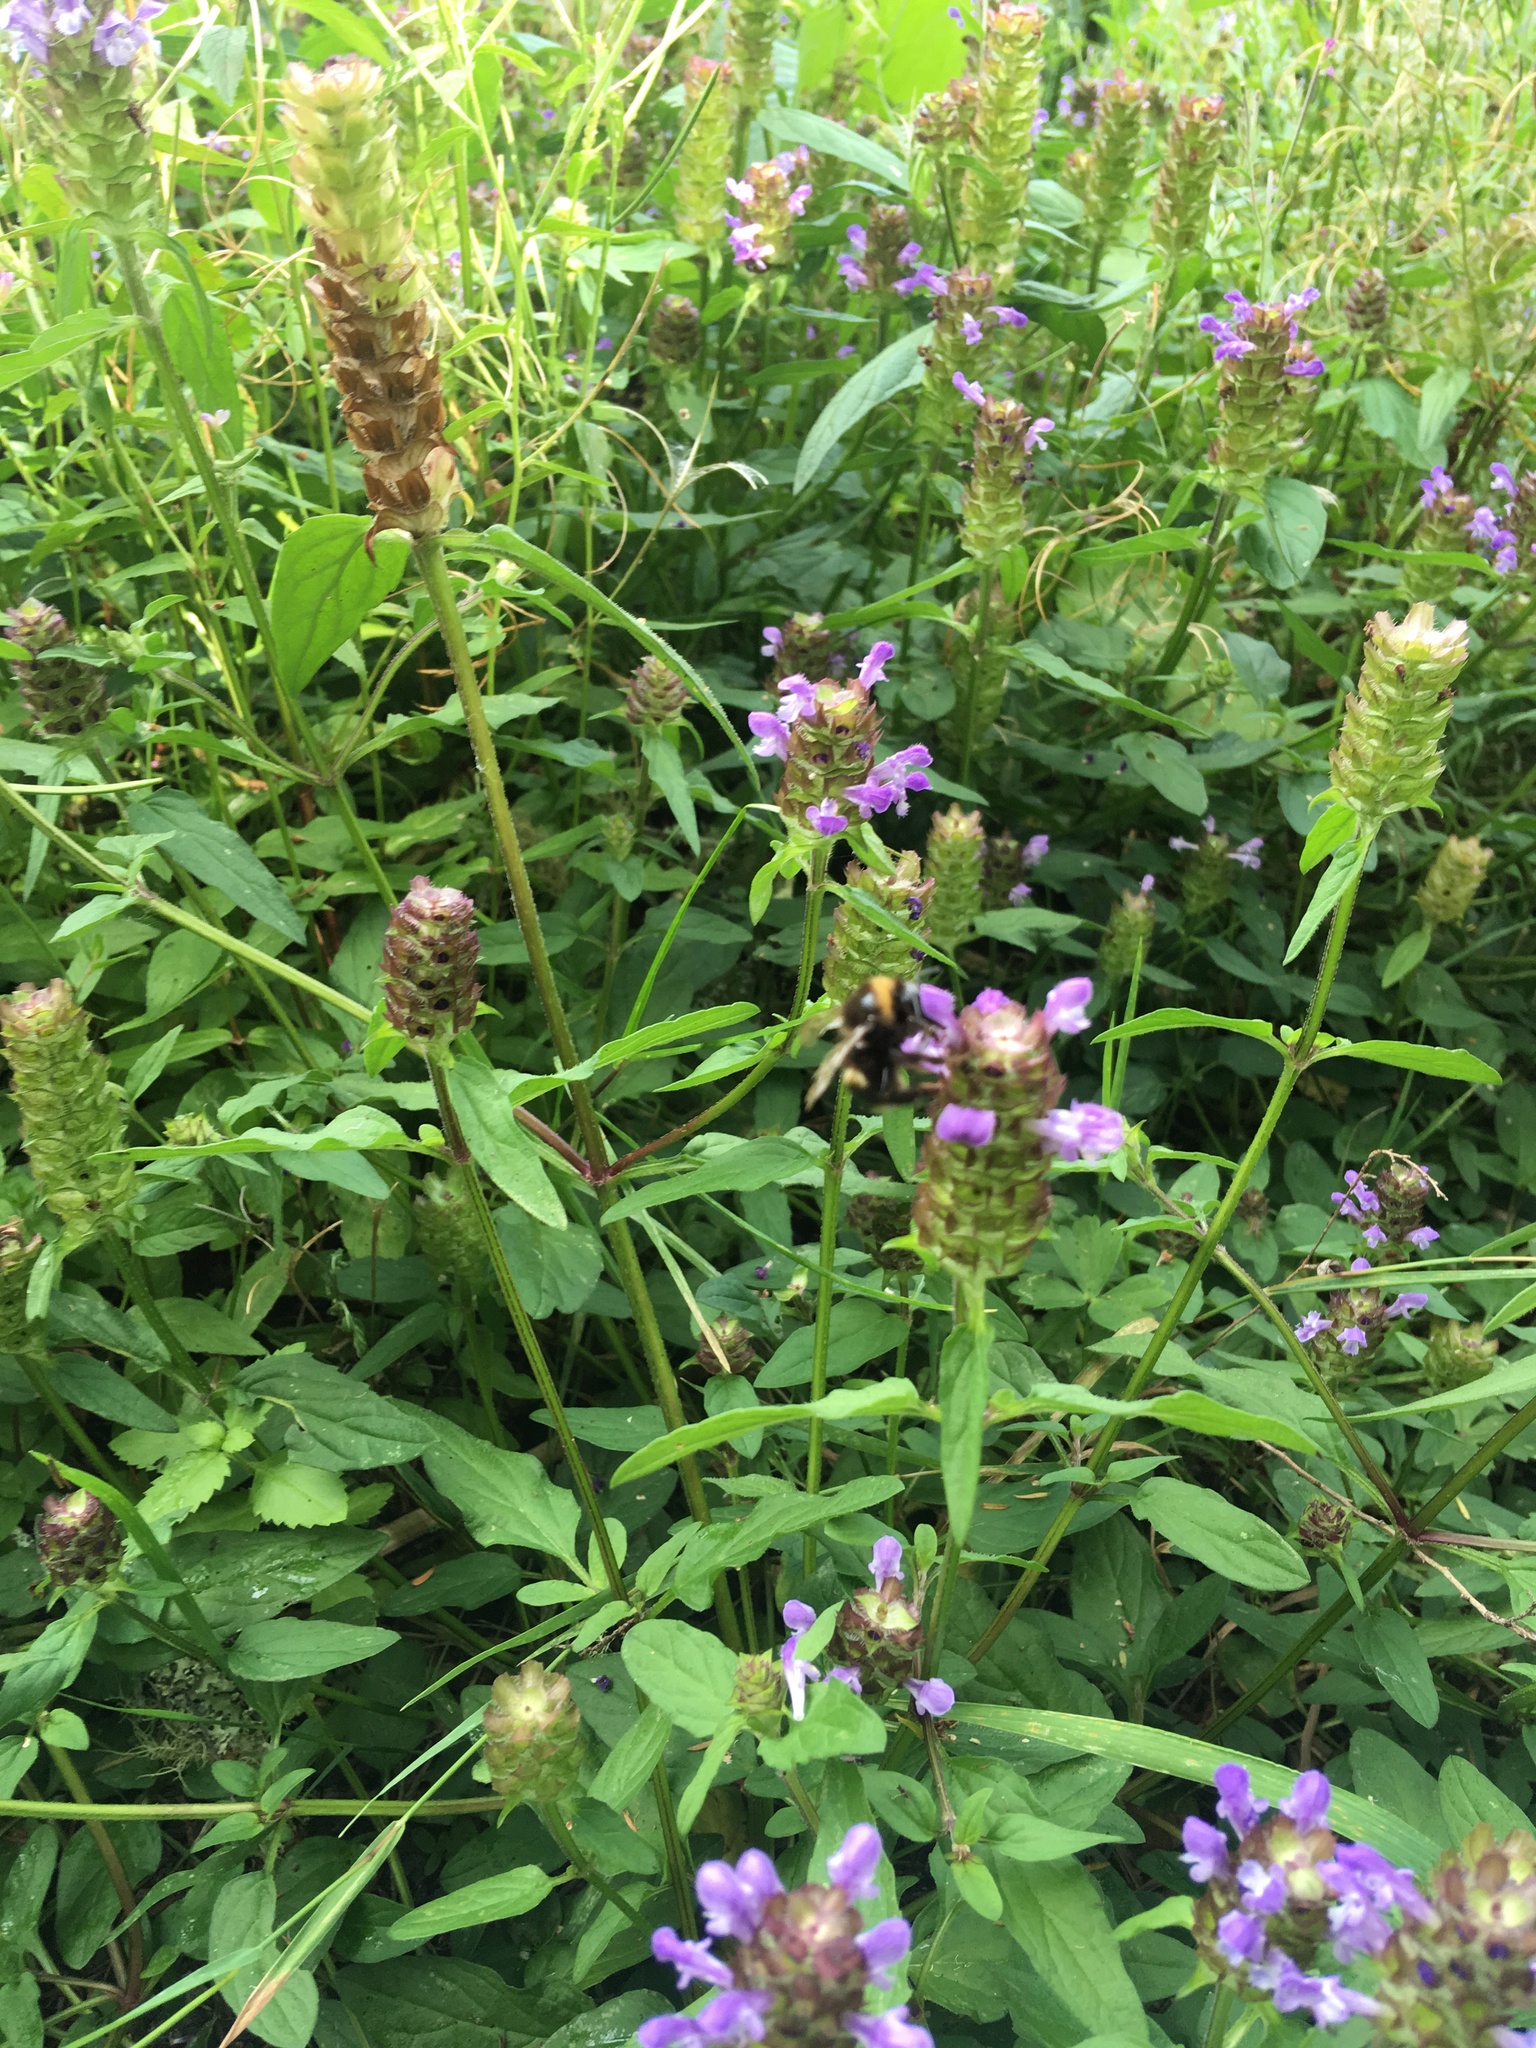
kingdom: Animalia
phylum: Arthropoda
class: Insecta
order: Hymenoptera
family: Apidae
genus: Bombus
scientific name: Bombus terrestris
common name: Buff-tailed bumblebee
